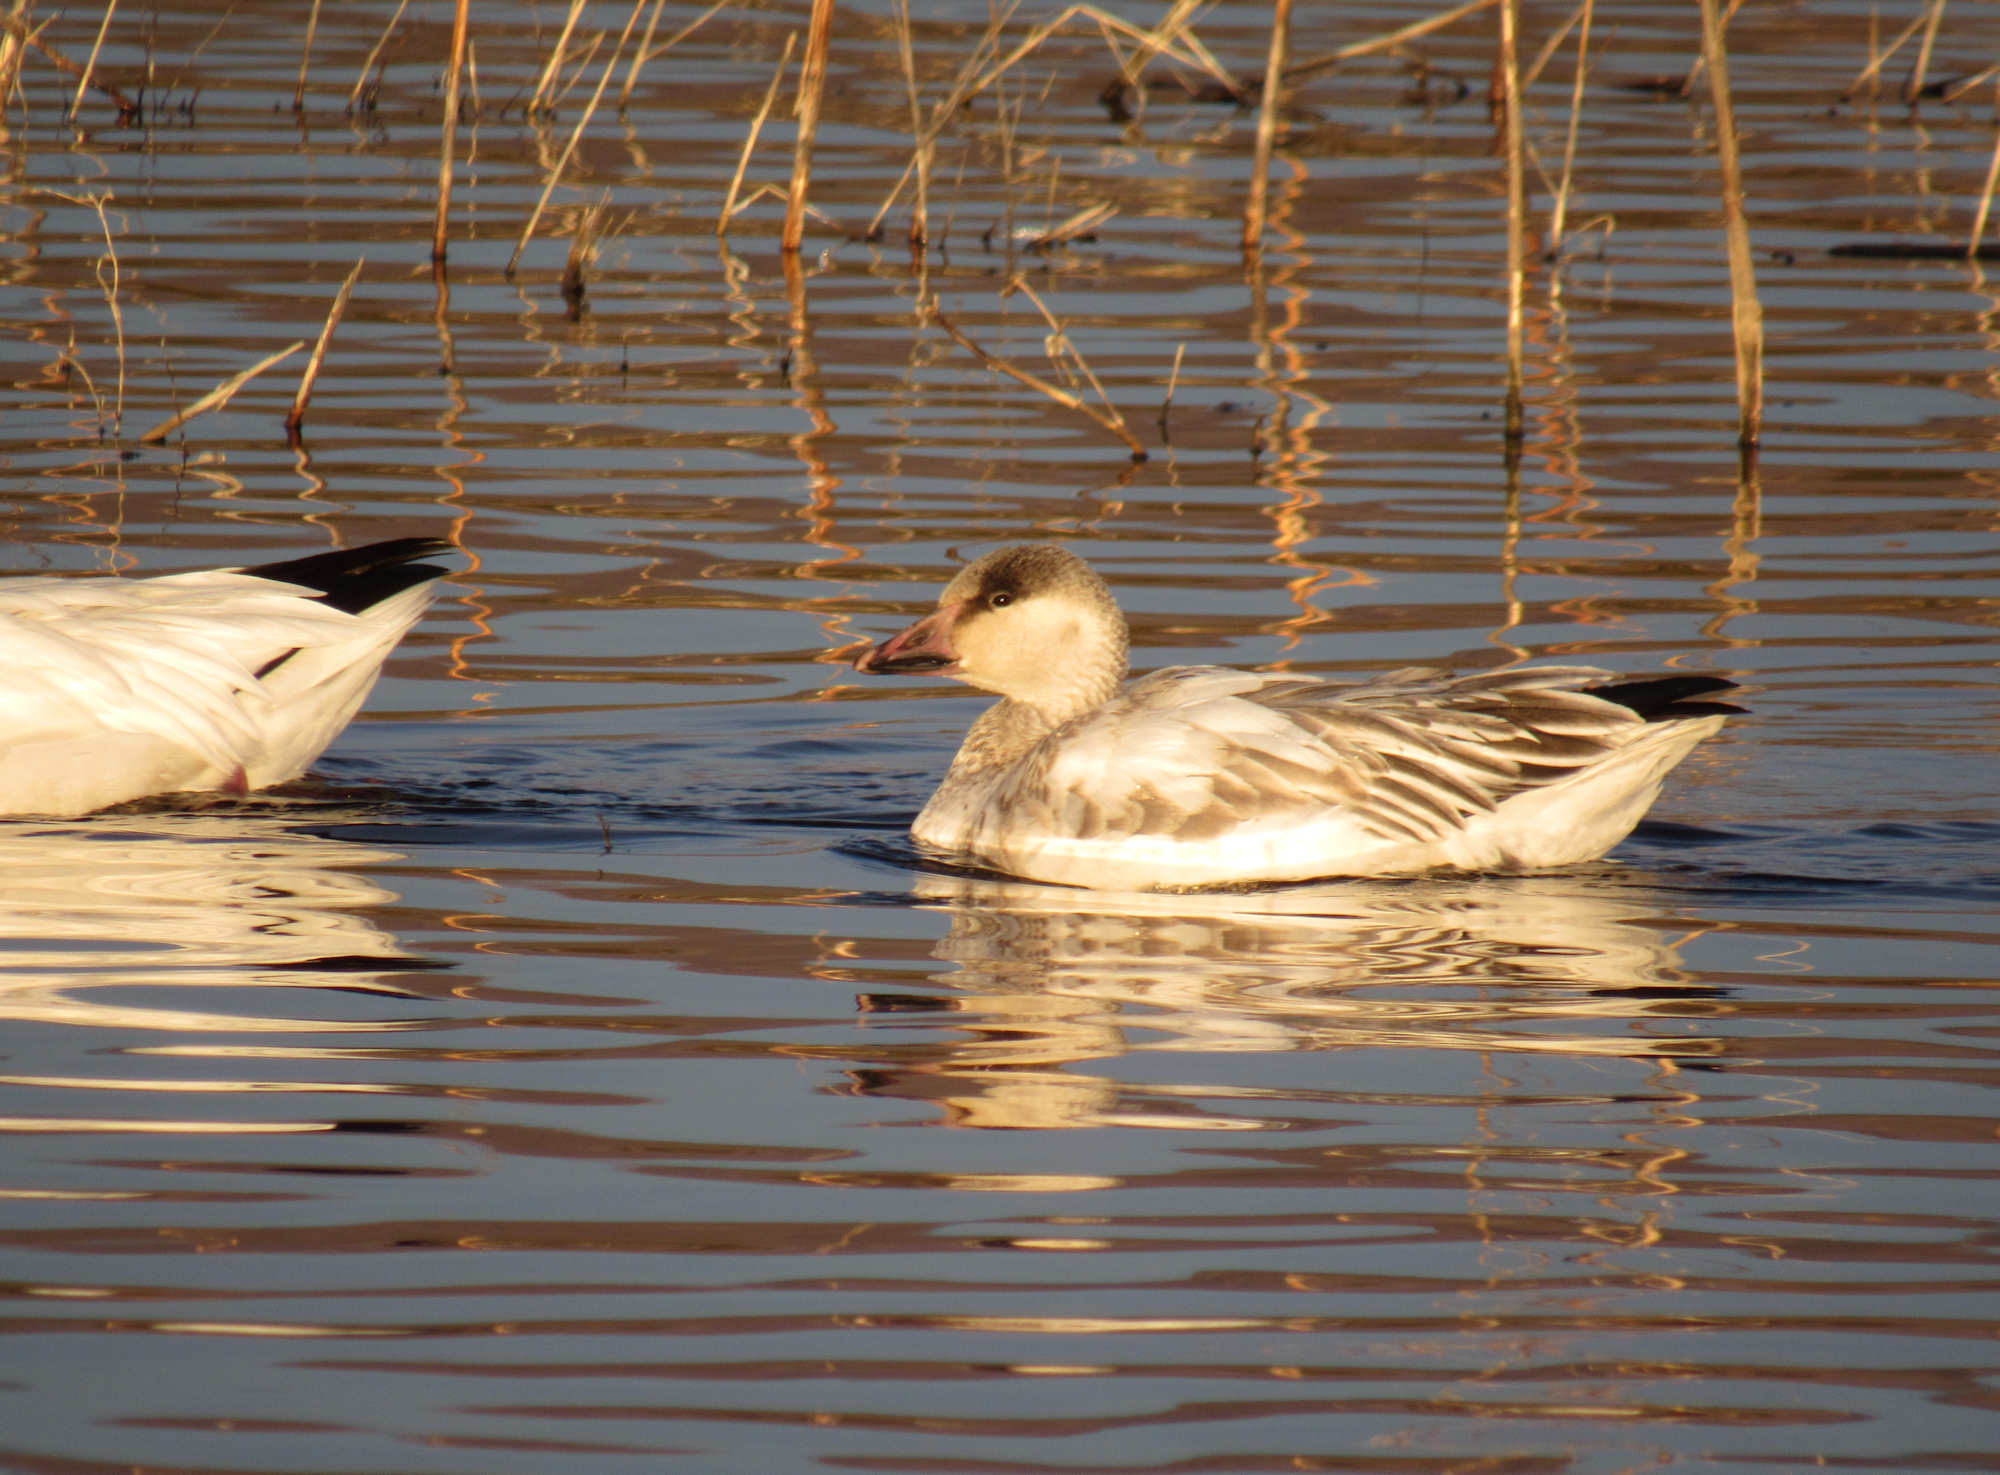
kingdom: Animalia
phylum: Chordata
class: Aves
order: Anseriformes
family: Anatidae
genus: Anser
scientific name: Anser caerulescens
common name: Snow goose
